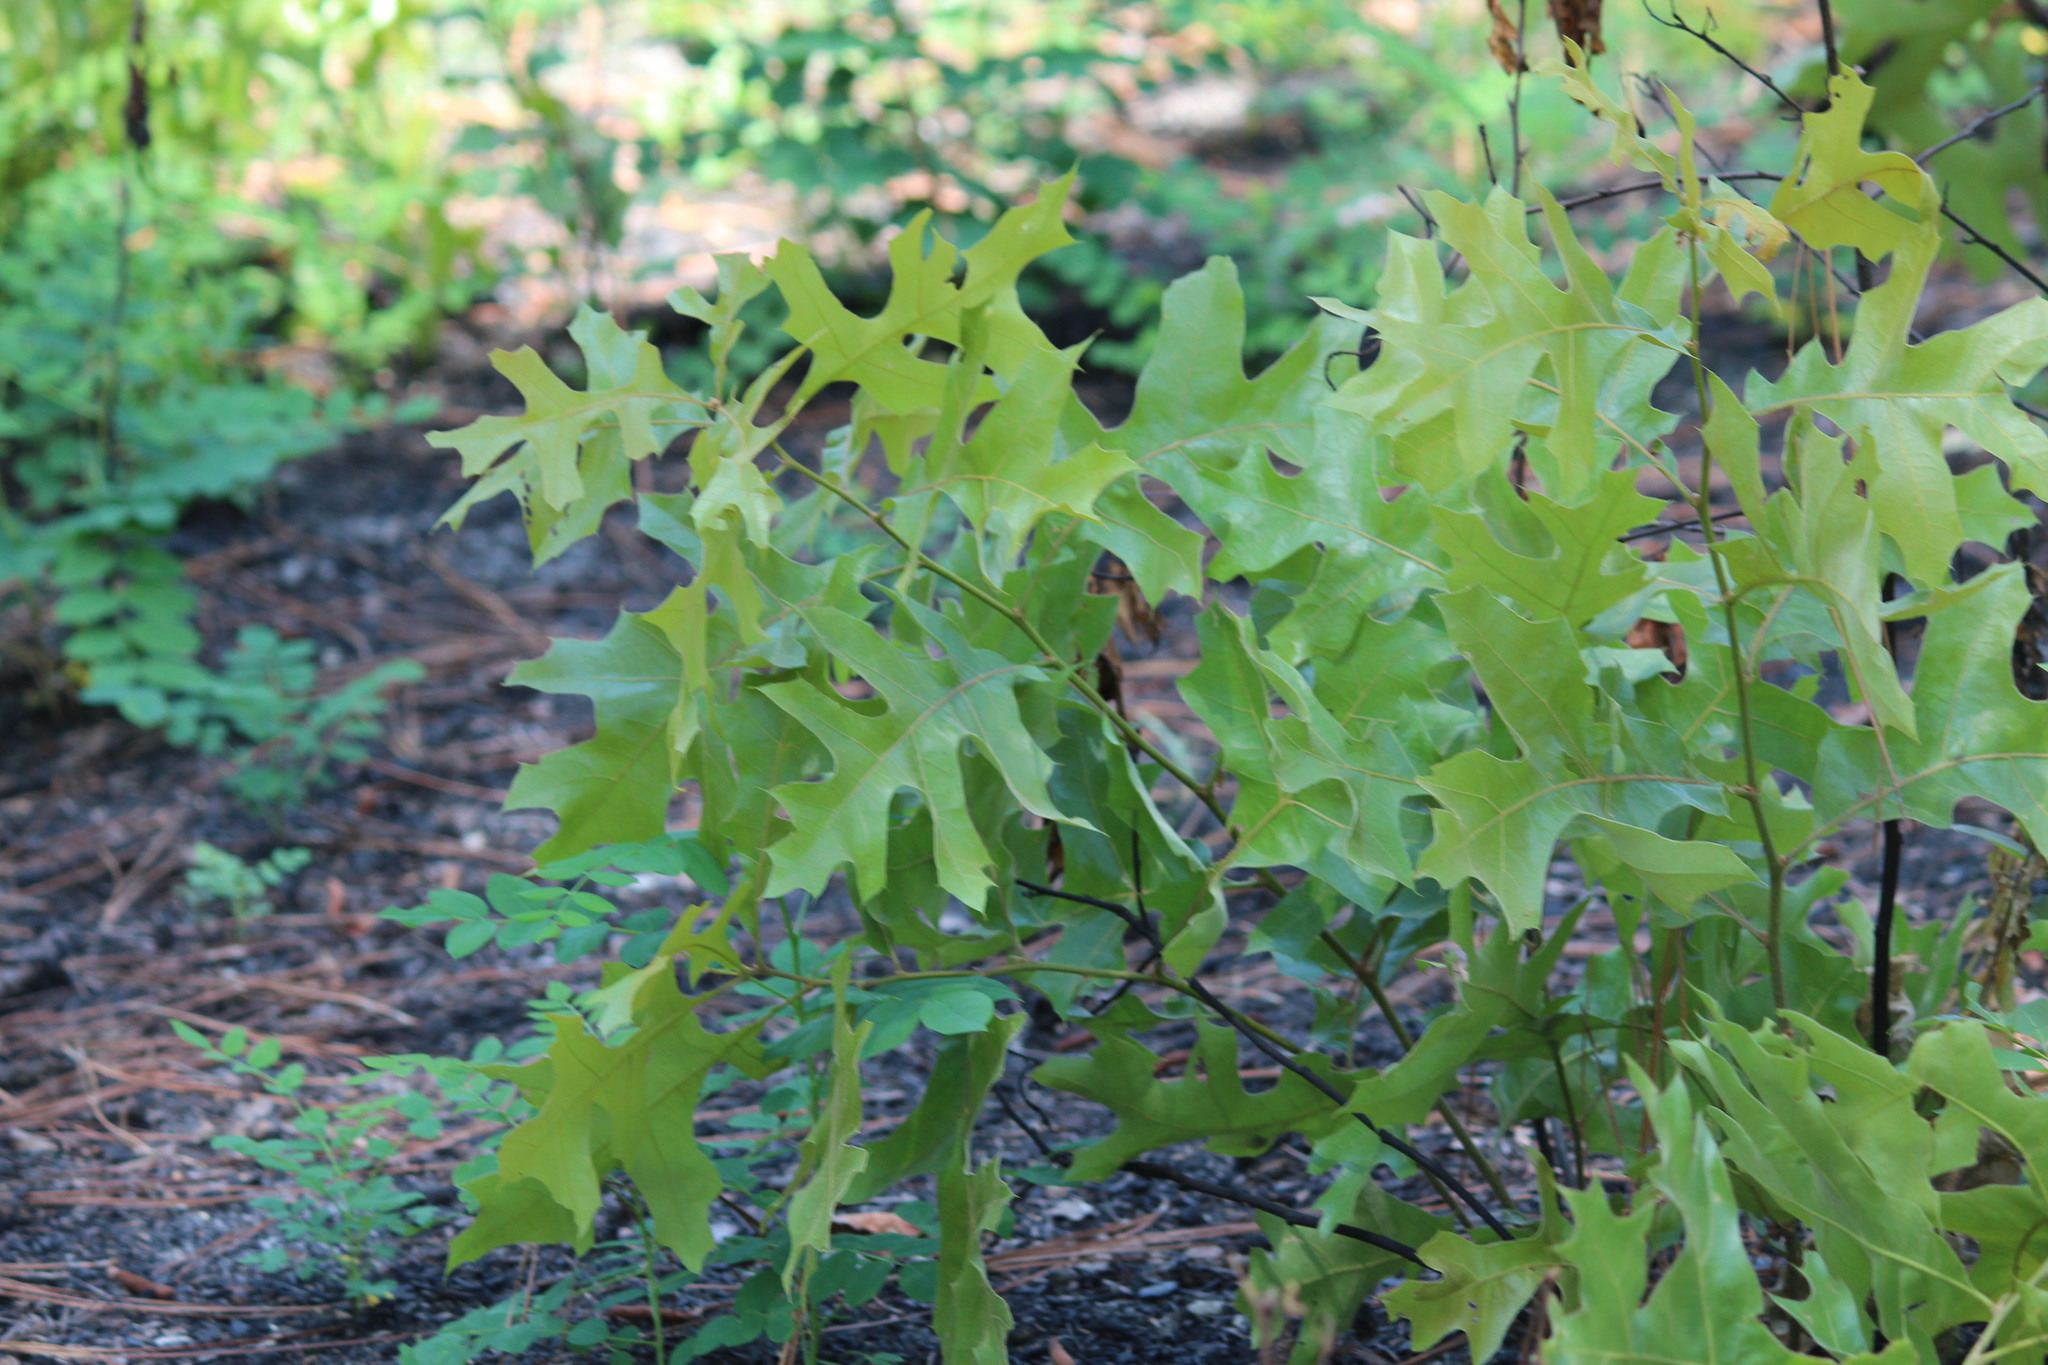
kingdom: Plantae
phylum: Tracheophyta
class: Magnoliopsida
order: Fagales
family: Fagaceae
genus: Quercus
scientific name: Quercus laevis
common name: Turkey oak
